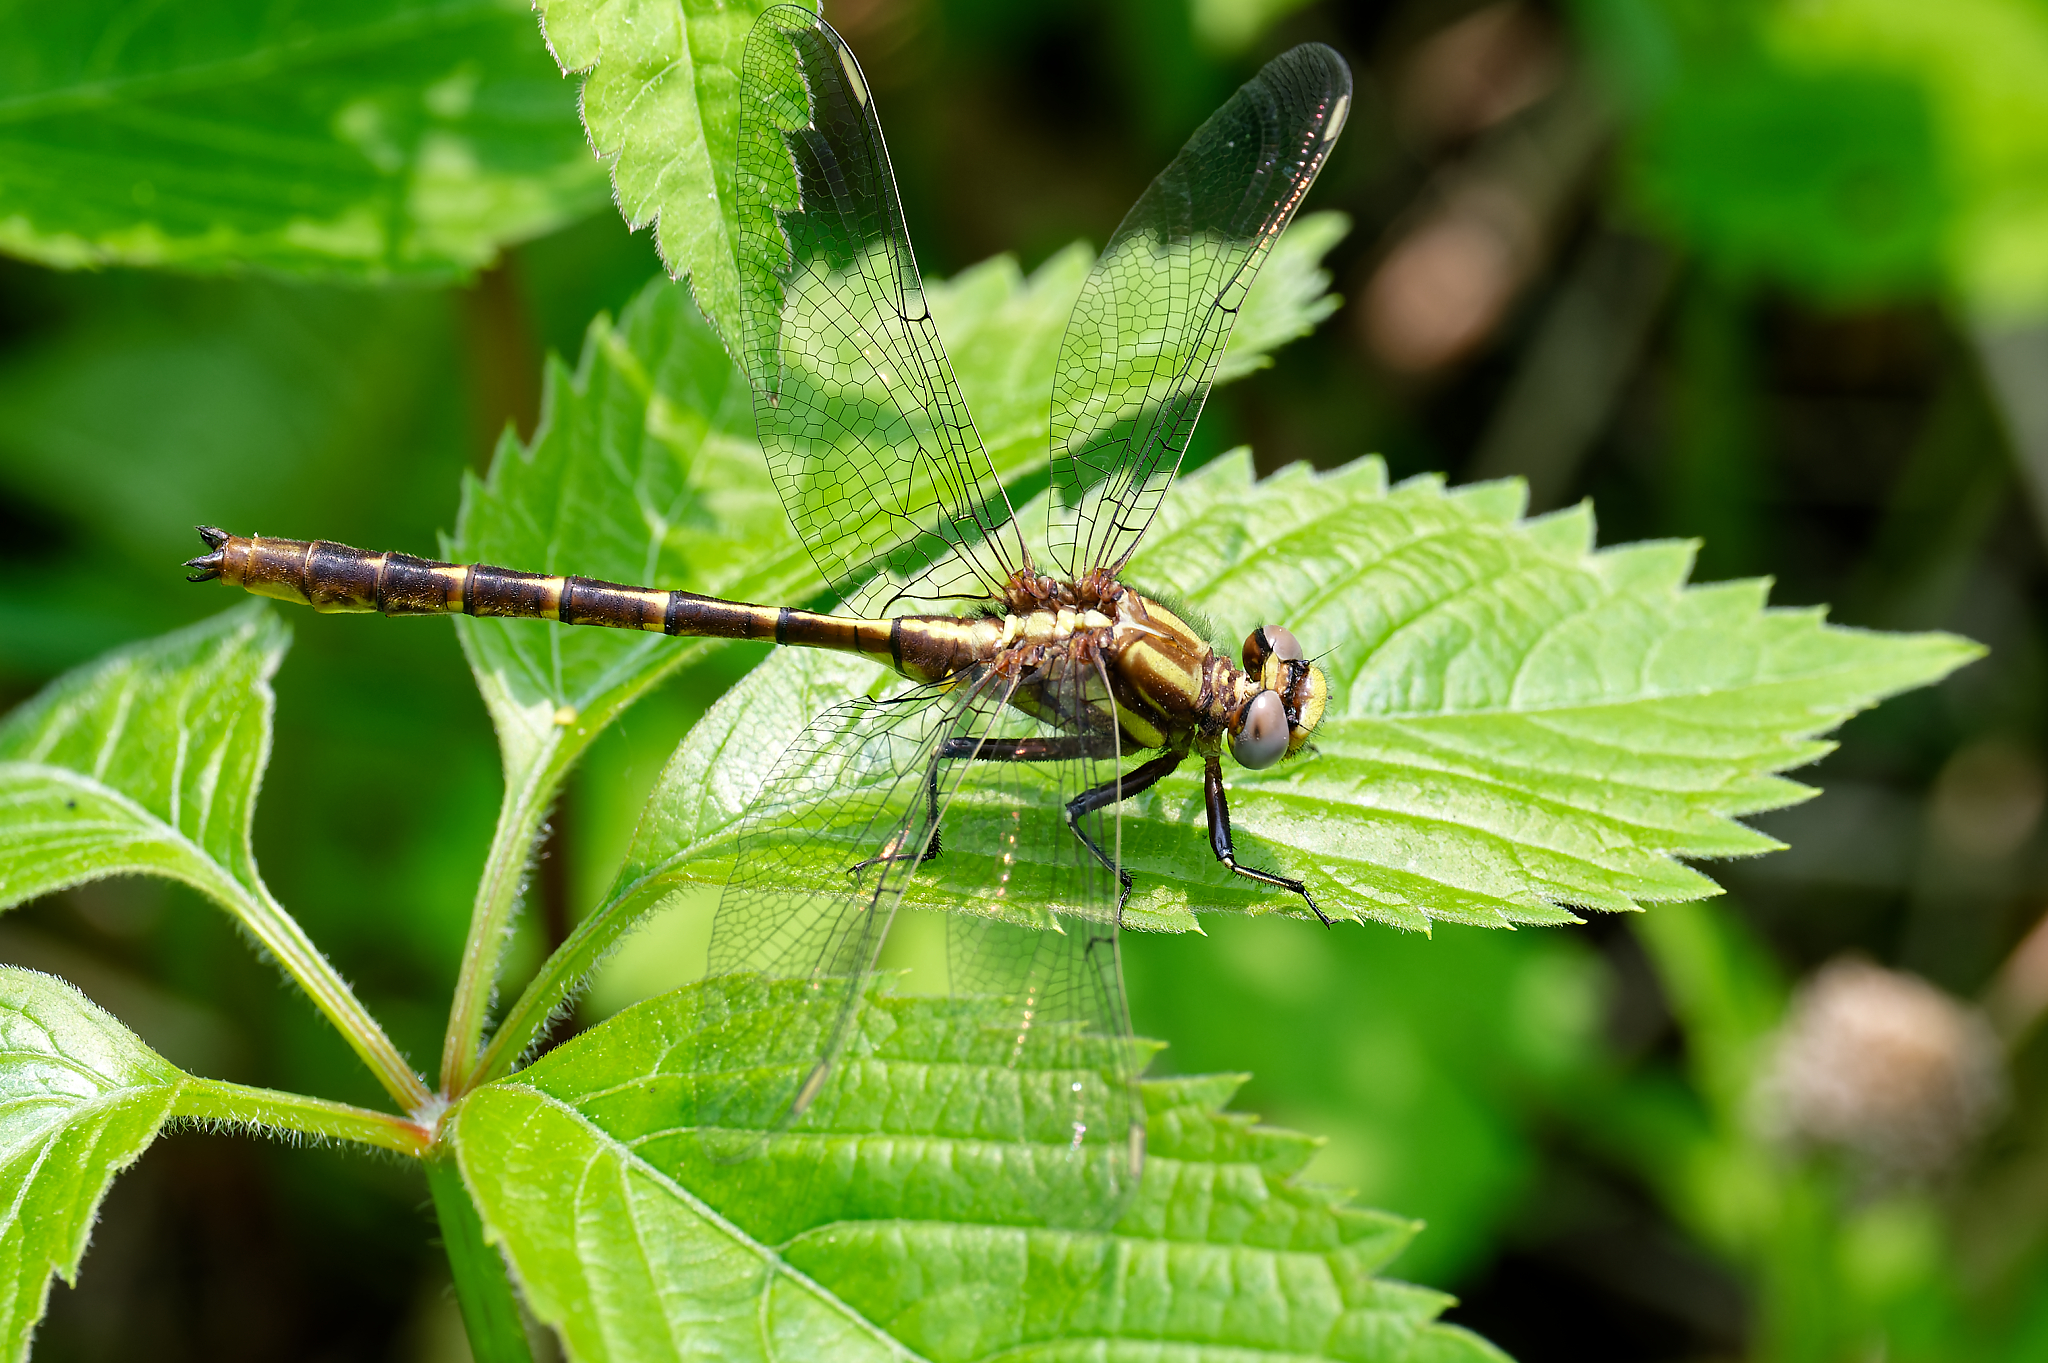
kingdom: Animalia
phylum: Arthropoda
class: Insecta
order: Odonata
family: Gomphidae
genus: Phanogomphus
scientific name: Phanogomphus lividus
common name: Ashy clubtail
